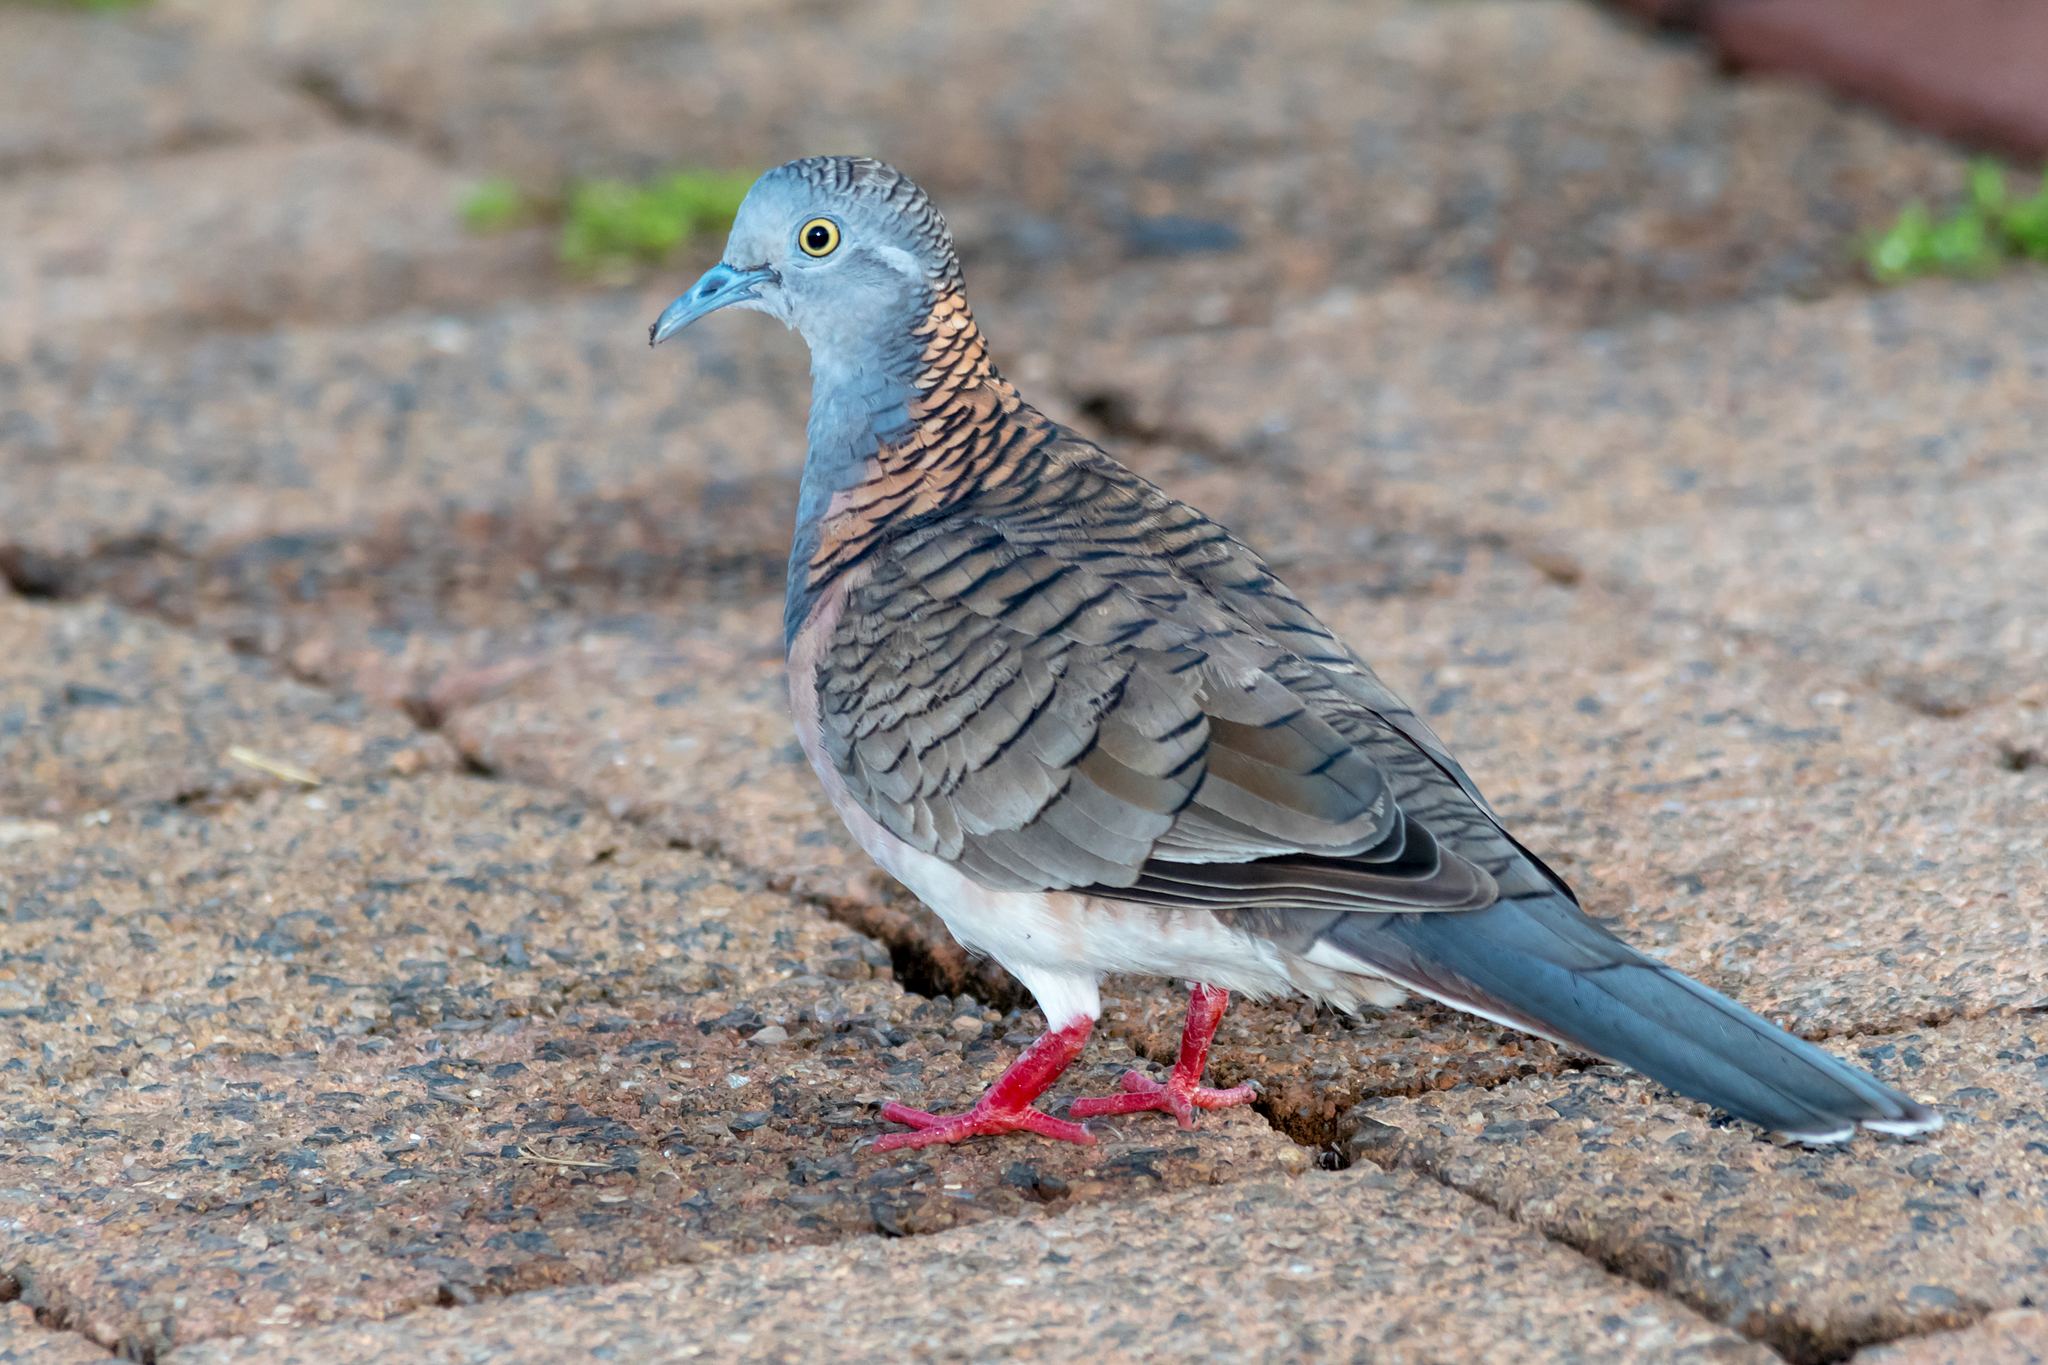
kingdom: Animalia
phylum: Chordata
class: Aves
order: Columbiformes
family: Columbidae
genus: Geopelia
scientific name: Geopelia humeralis
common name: Bar-shouldered dove
